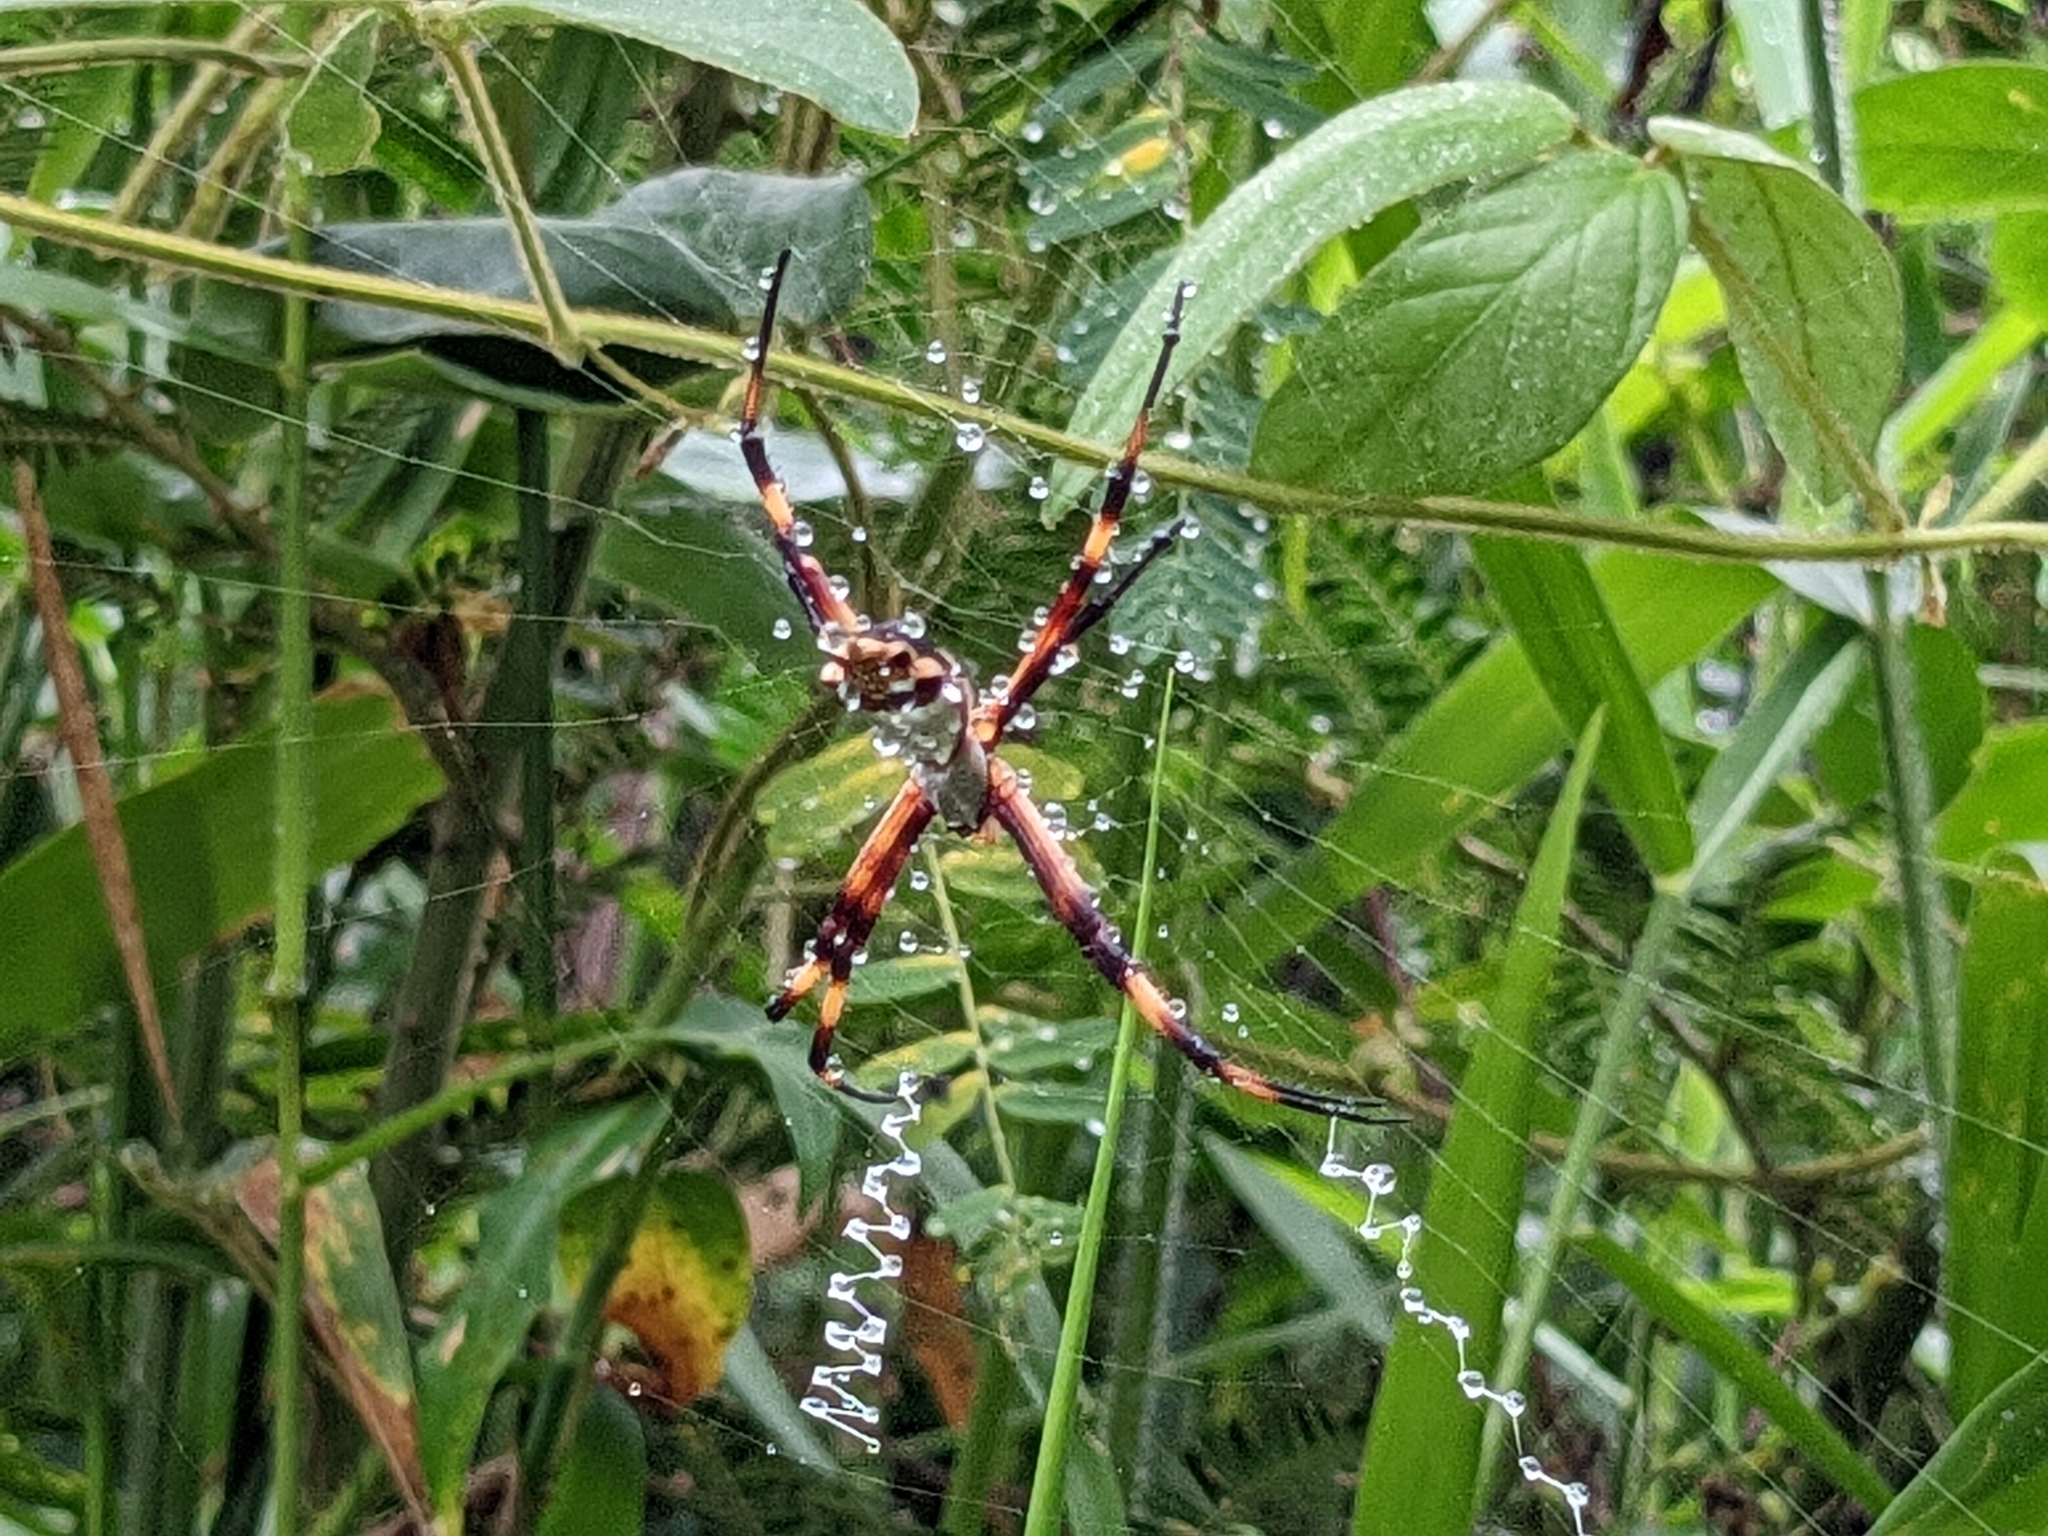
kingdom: Animalia
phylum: Arthropoda
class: Arachnida
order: Araneae
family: Araneidae
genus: Argiope
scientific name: Argiope argentata
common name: Orb weavers
